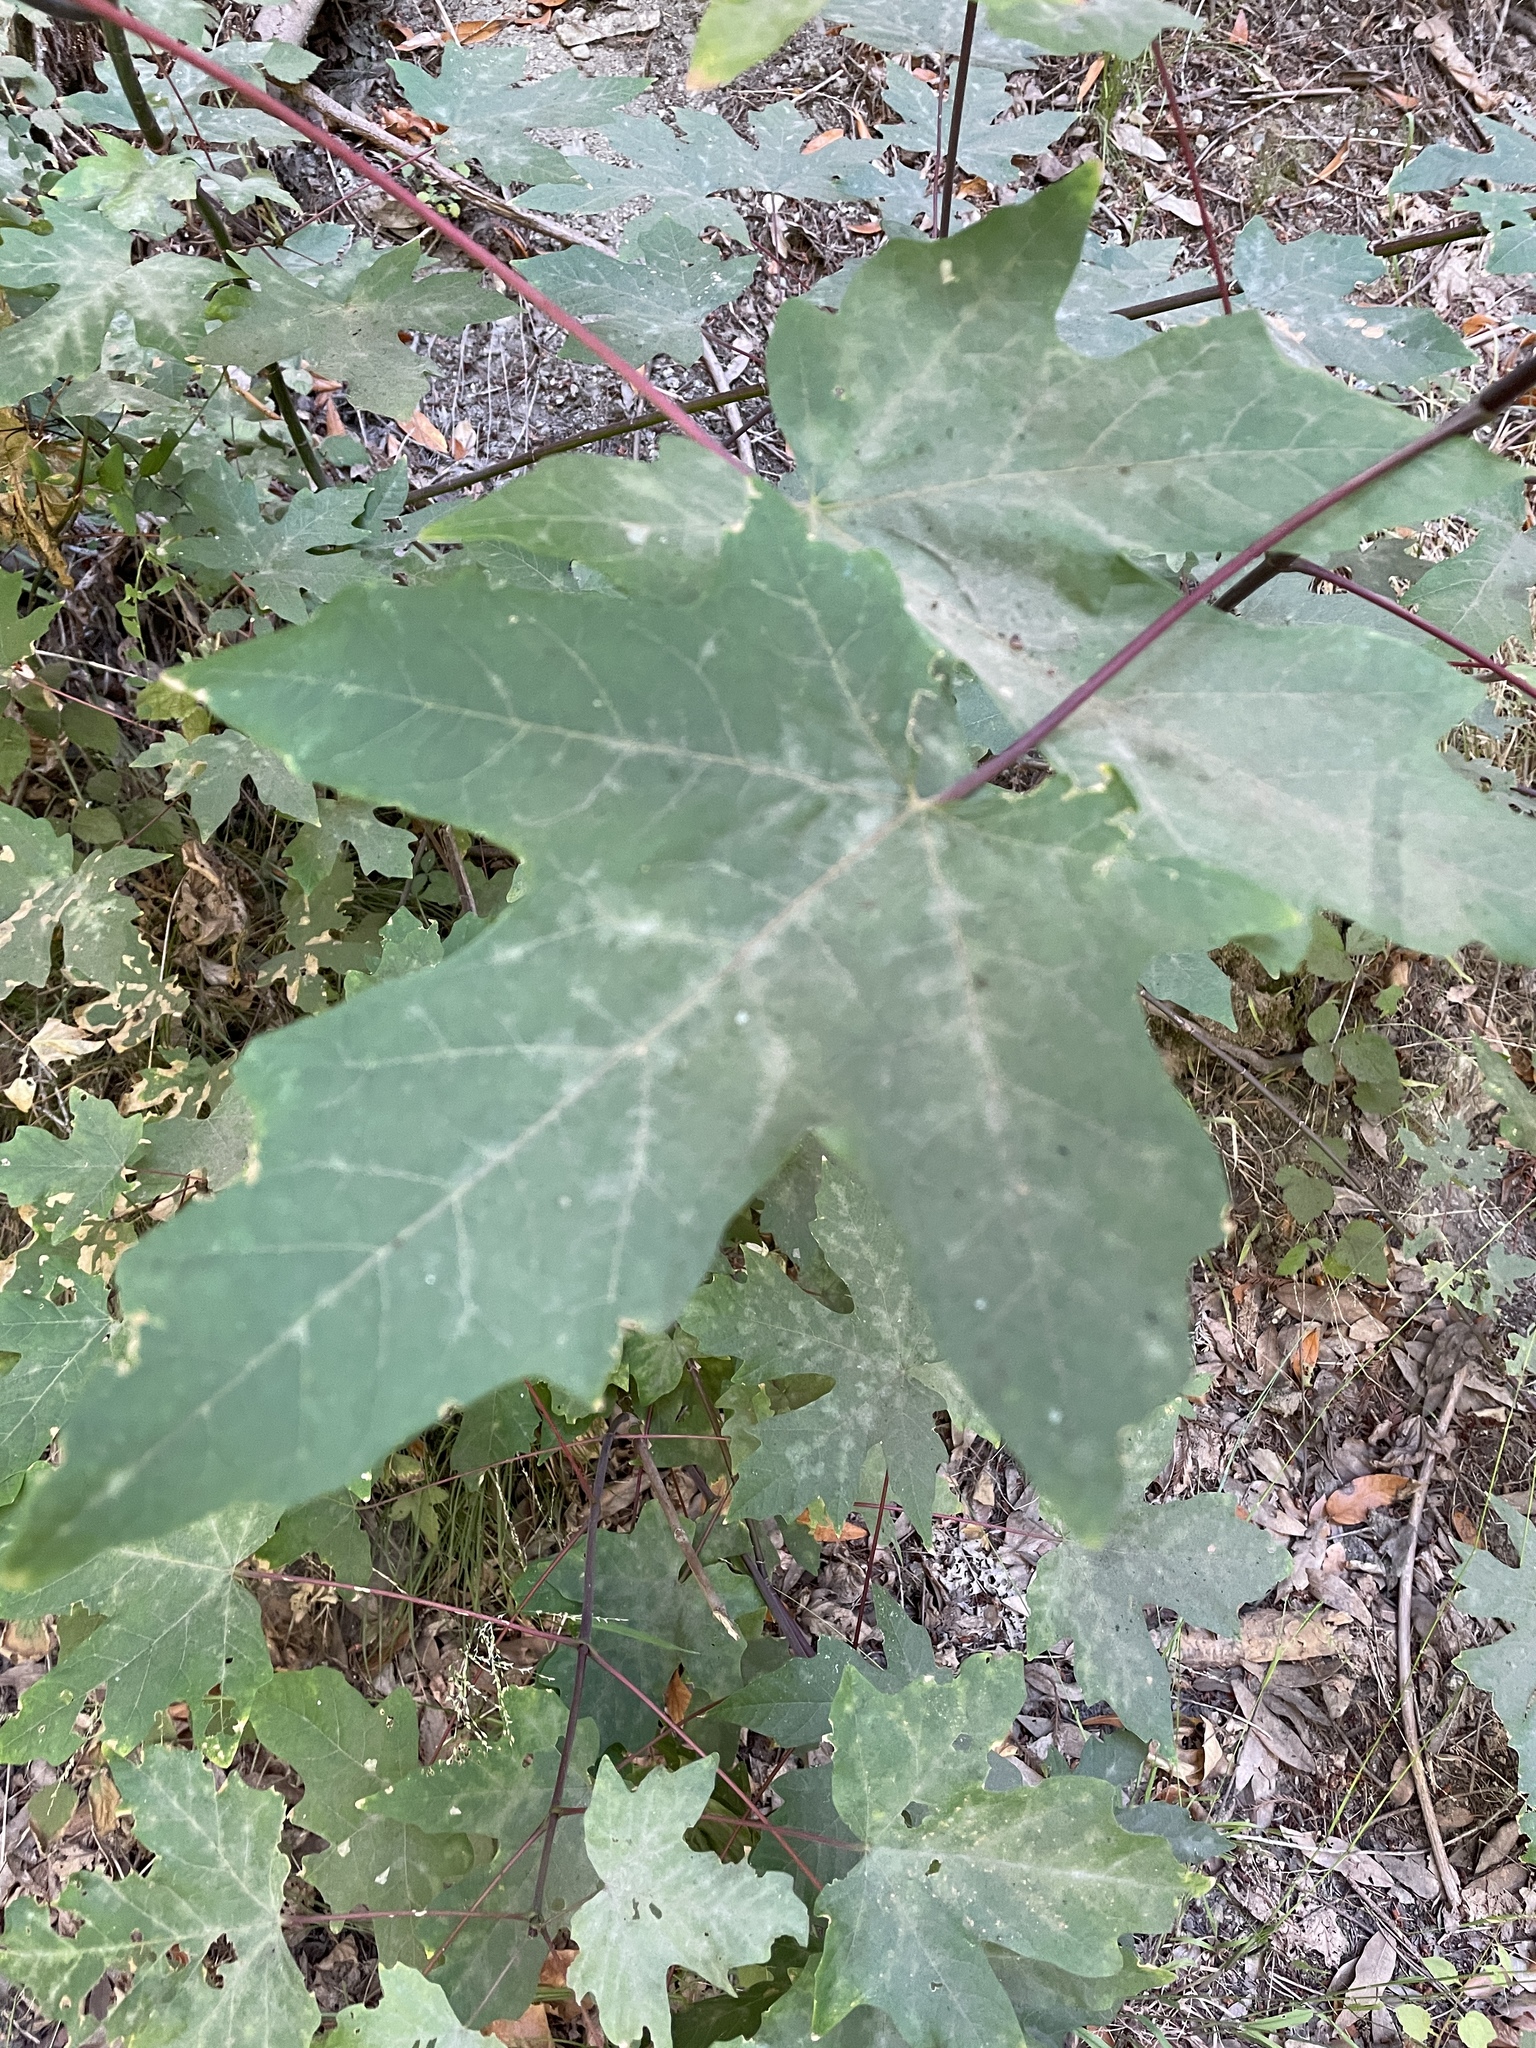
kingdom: Plantae
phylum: Tracheophyta
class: Magnoliopsida
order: Sapindales
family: Sapindaceae
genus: Acer
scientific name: Acer macrophyllum
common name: Oregon maple
